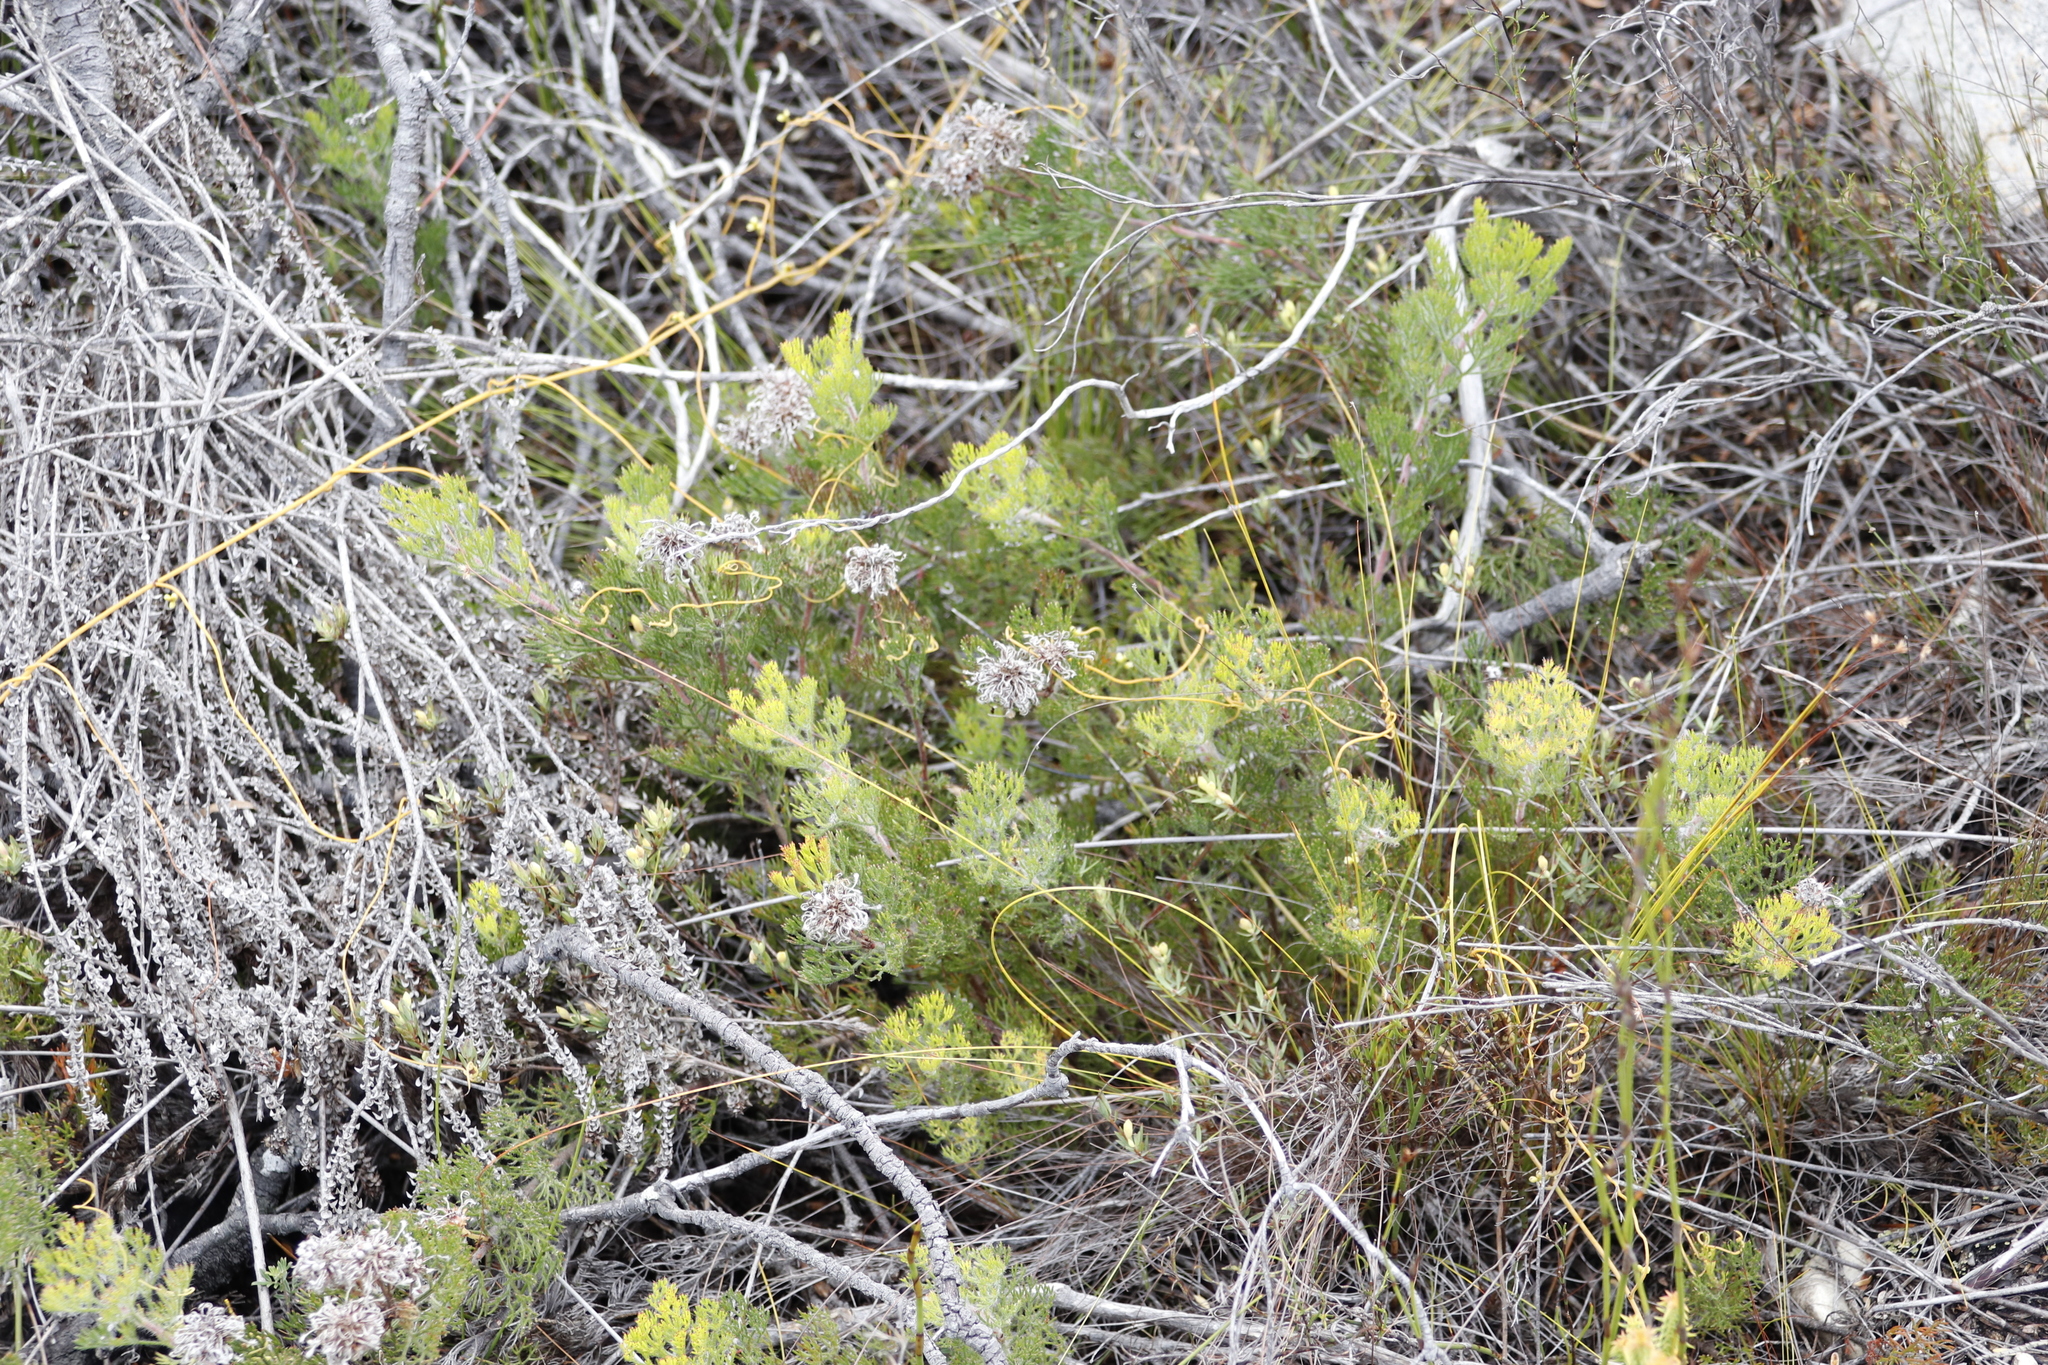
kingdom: Plantae
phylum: Tracheophyta
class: Magnoliopsida
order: Proteales
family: Proteaceae
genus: Serruria
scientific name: Serruria
